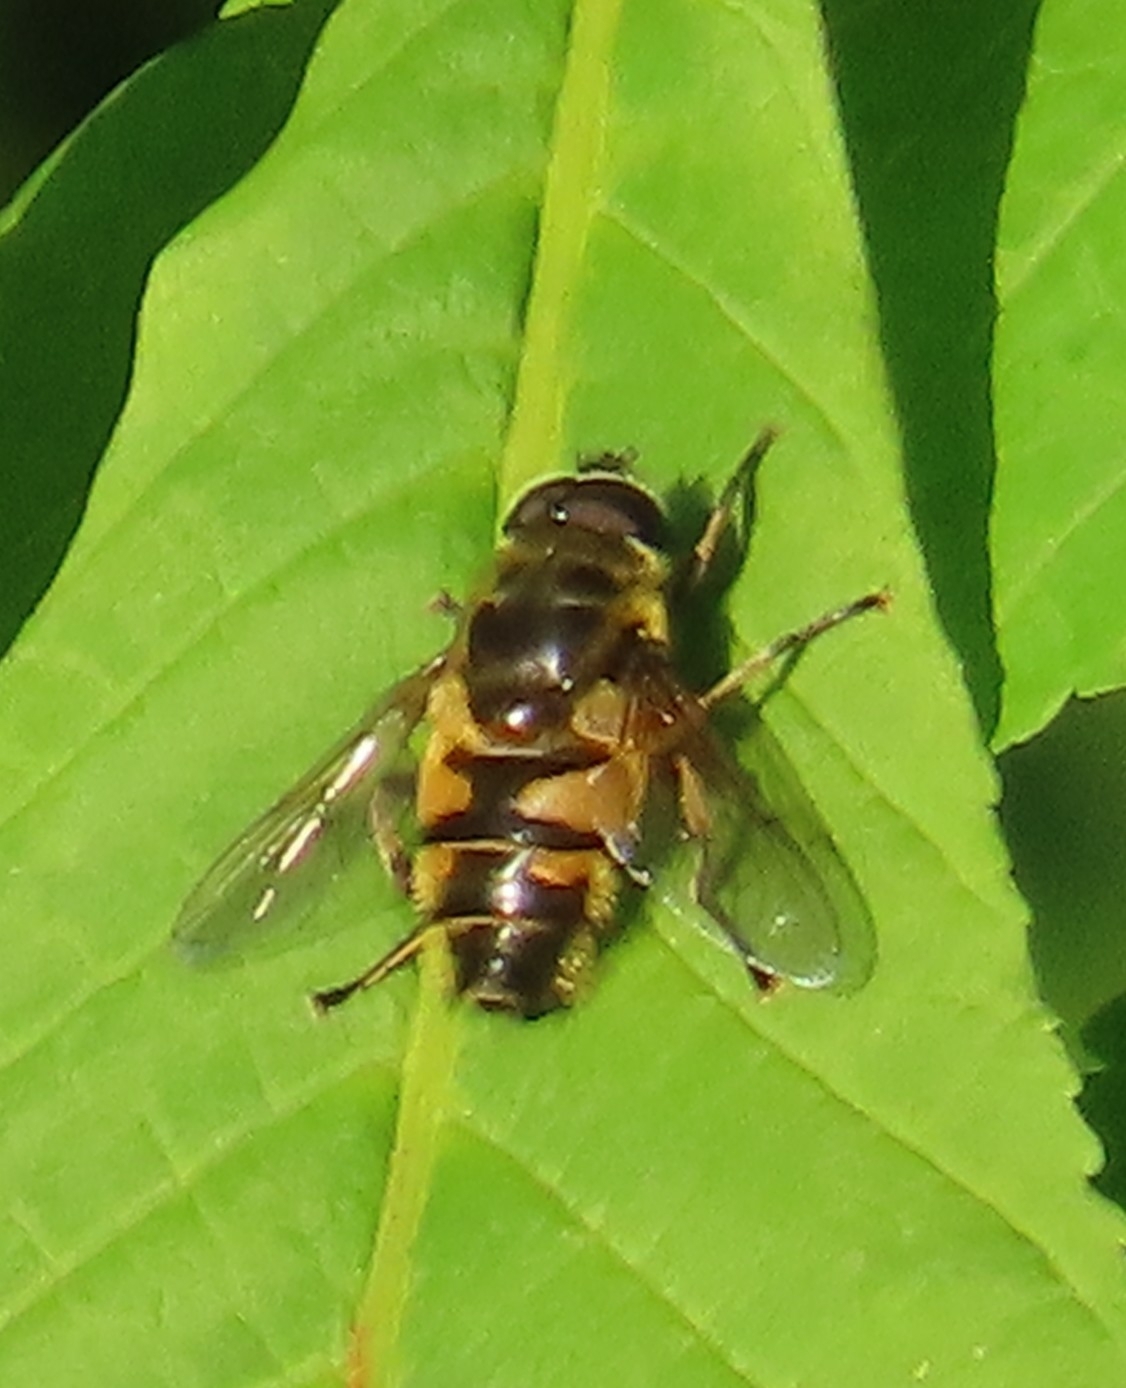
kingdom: Animalia
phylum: Arthropoda
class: Insecta
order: Diptera
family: Syrphidae
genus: Myathropa
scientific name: Myathropa florea
